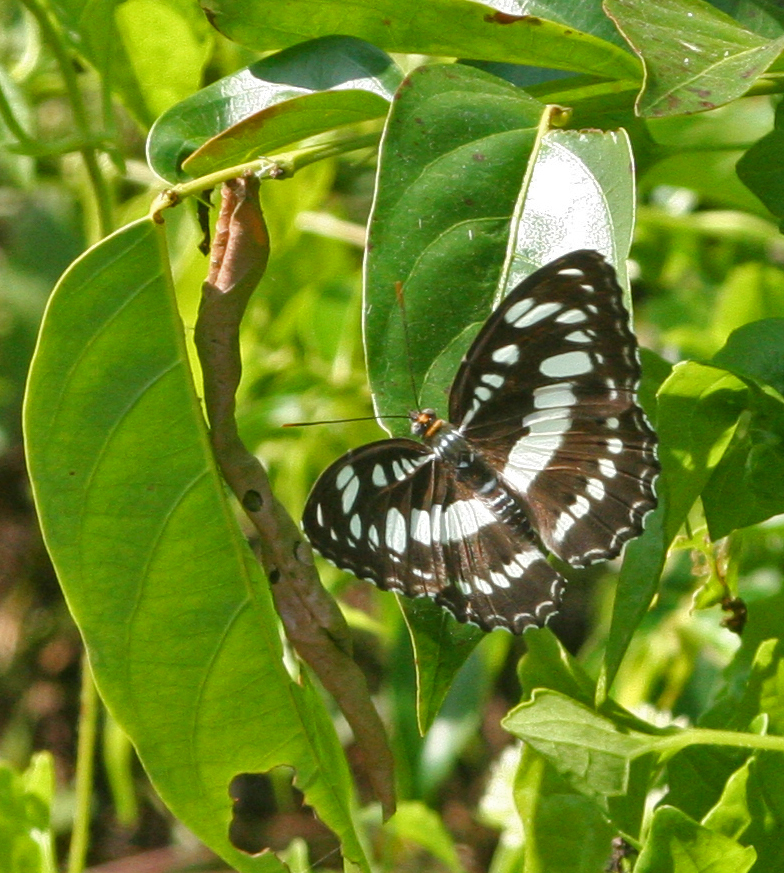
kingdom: Animalia
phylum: Arthropoda
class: Insecta
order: Lepidoptera
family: Nymphalidae
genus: Parathyma
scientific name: Parathyma perius
